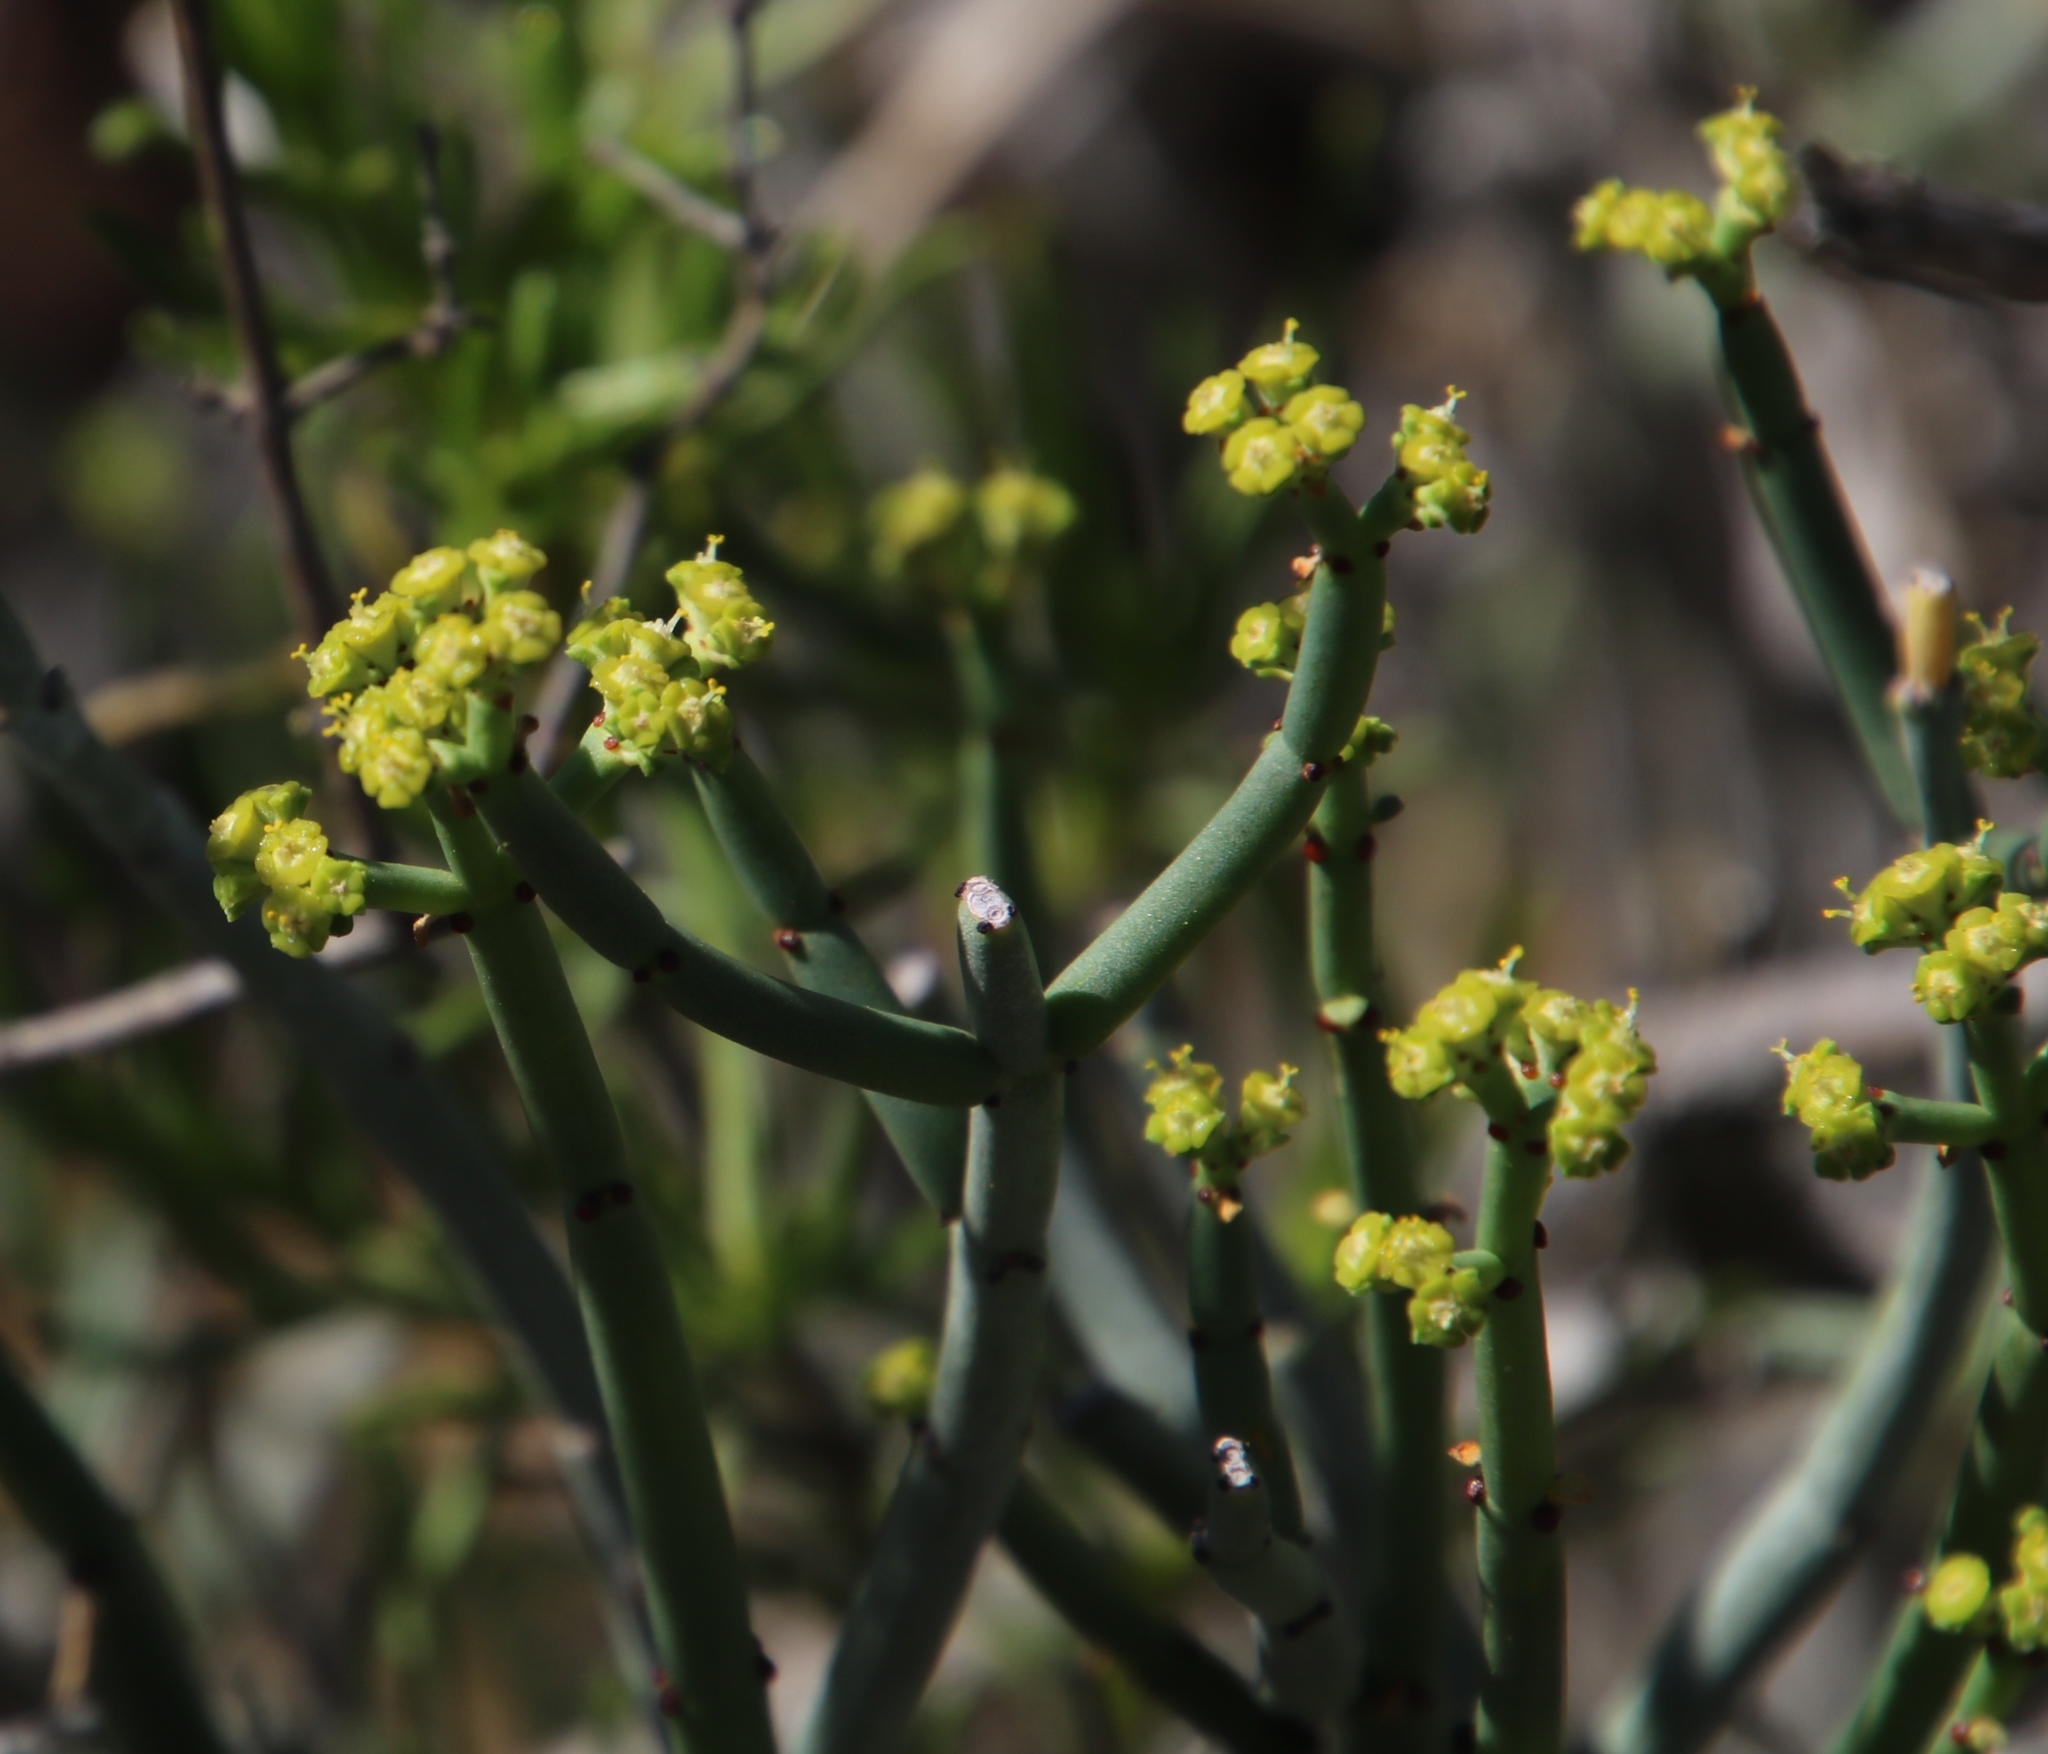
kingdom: Plantae
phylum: Tracheophyta
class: Magnoliopsida
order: Malpighiales
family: Euphorbiaceae
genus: Euphorbia
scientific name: Euphorbia burmanni
